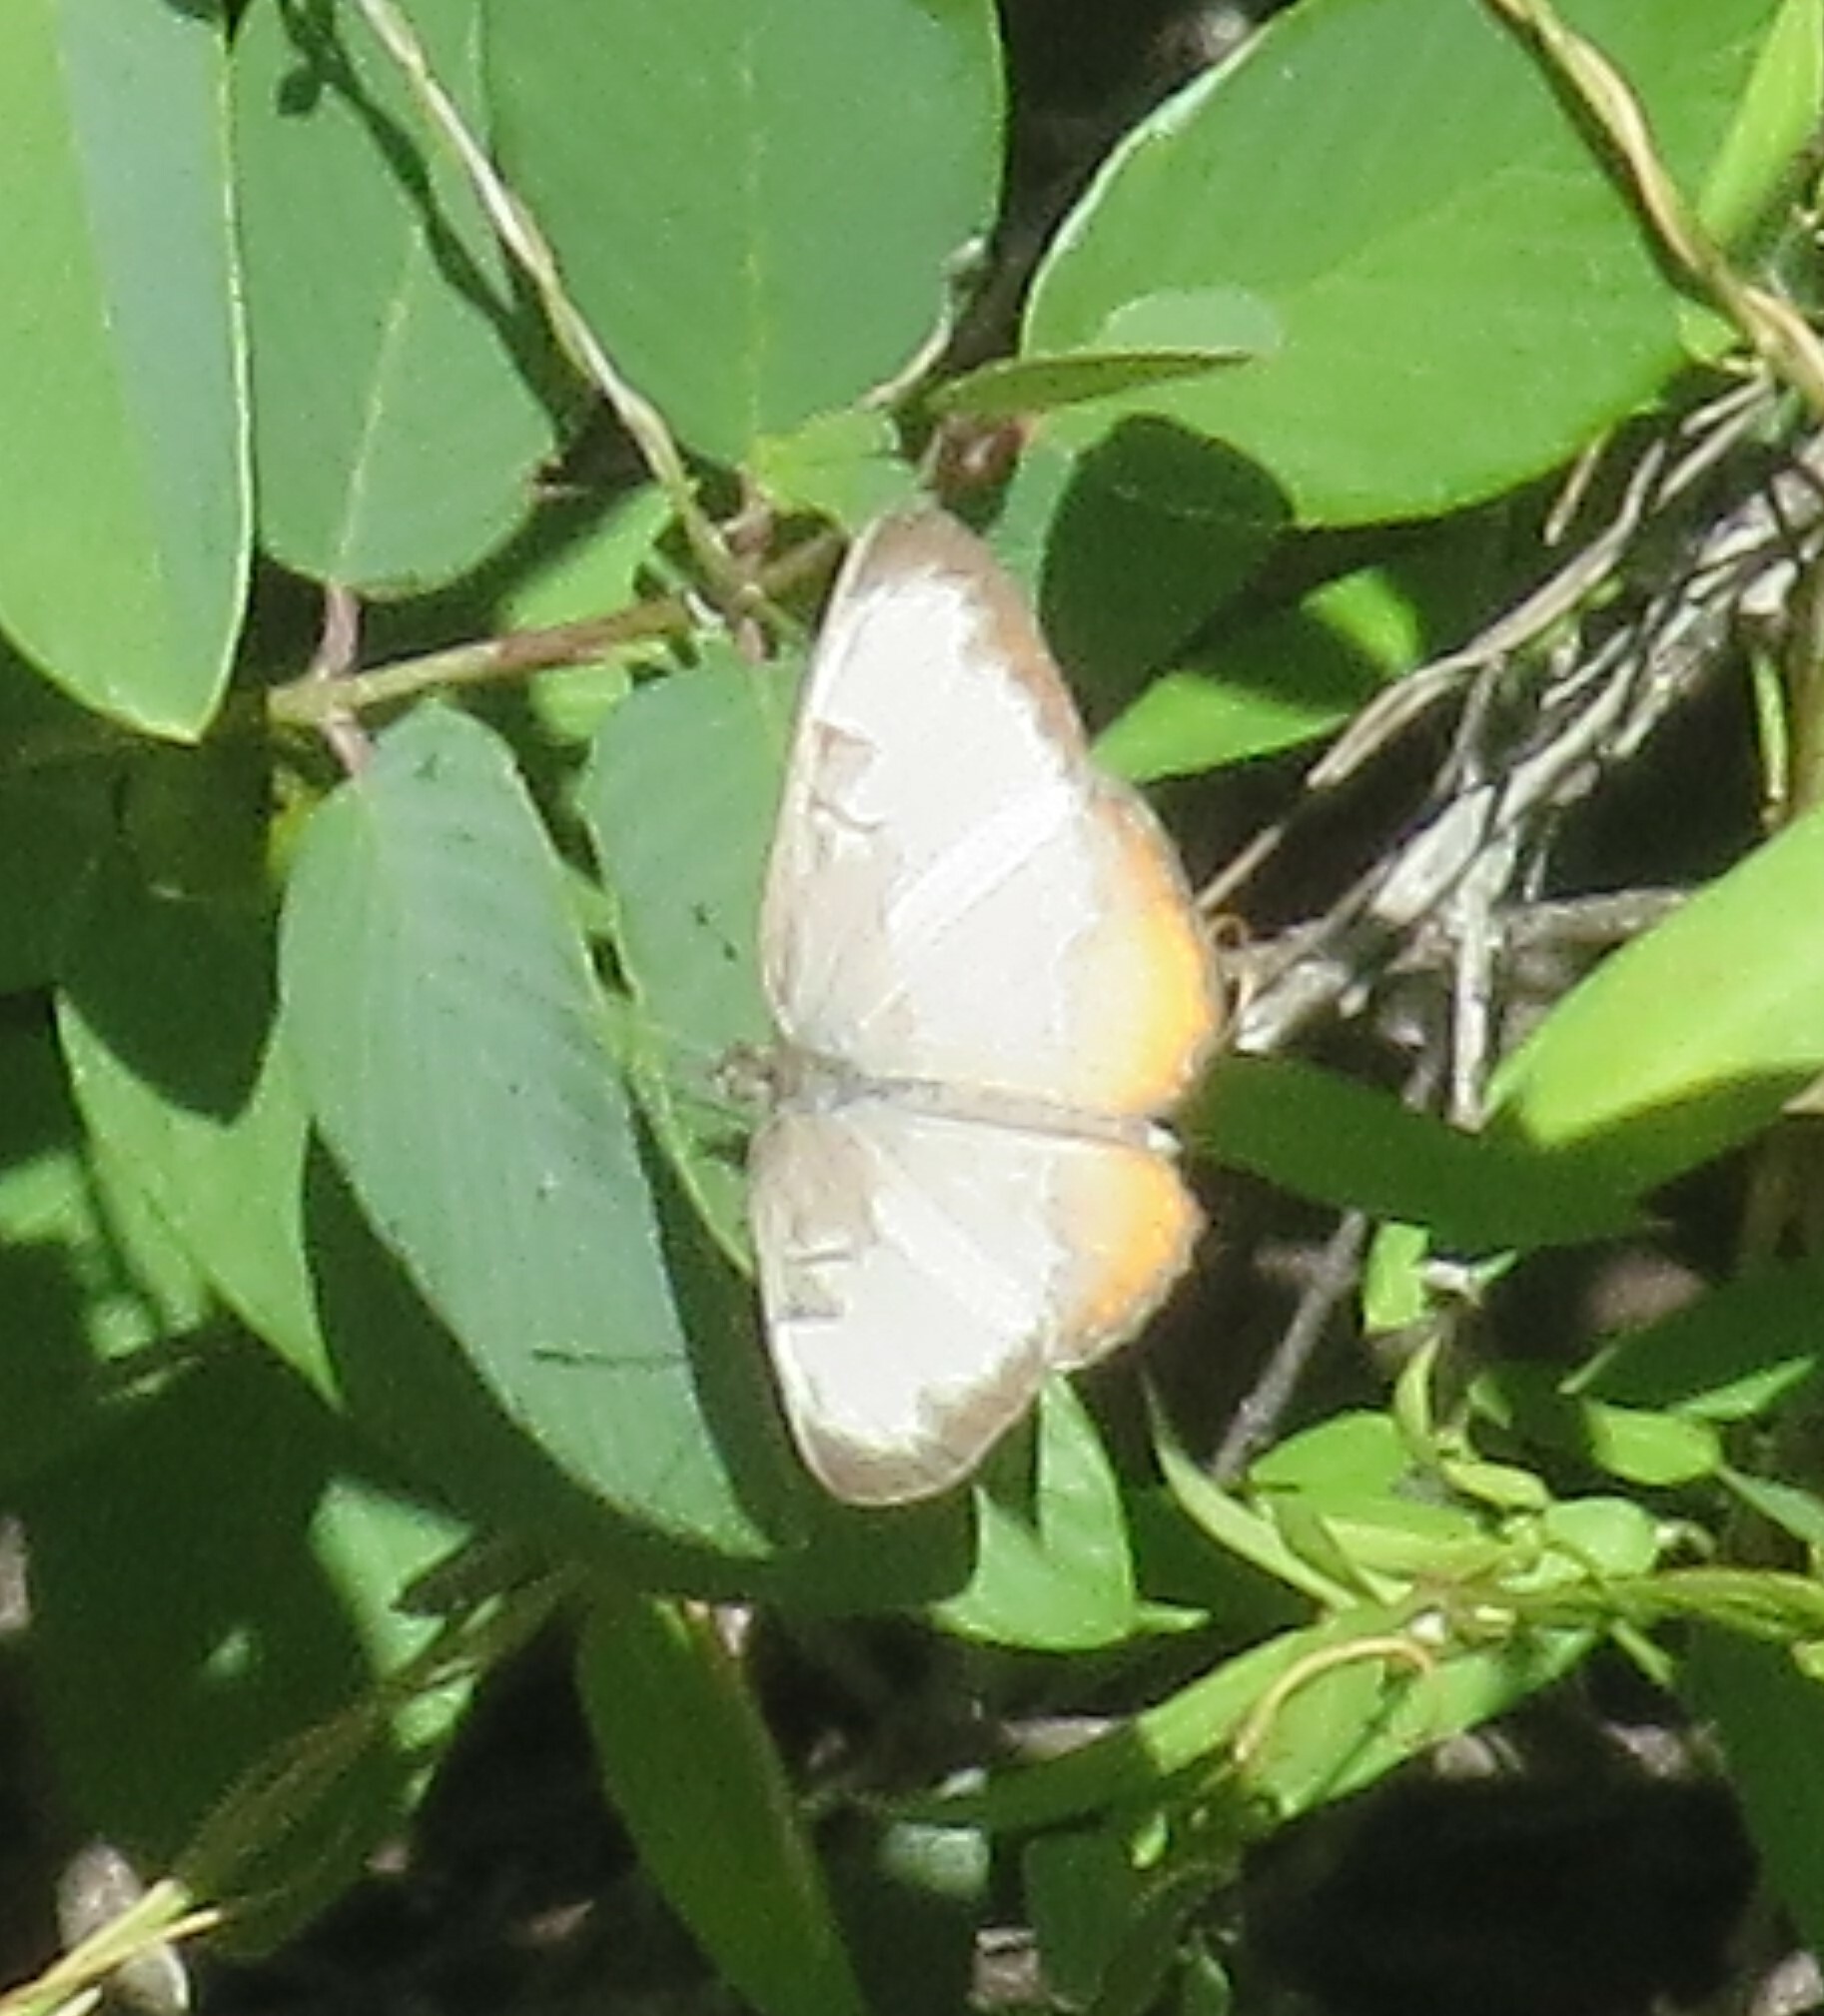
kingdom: Animalia
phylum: Arthropoda
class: Insecta
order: Lepidoptera
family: Nymphalidae
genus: Mestra
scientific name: Mestra amymone
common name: Common mestra
